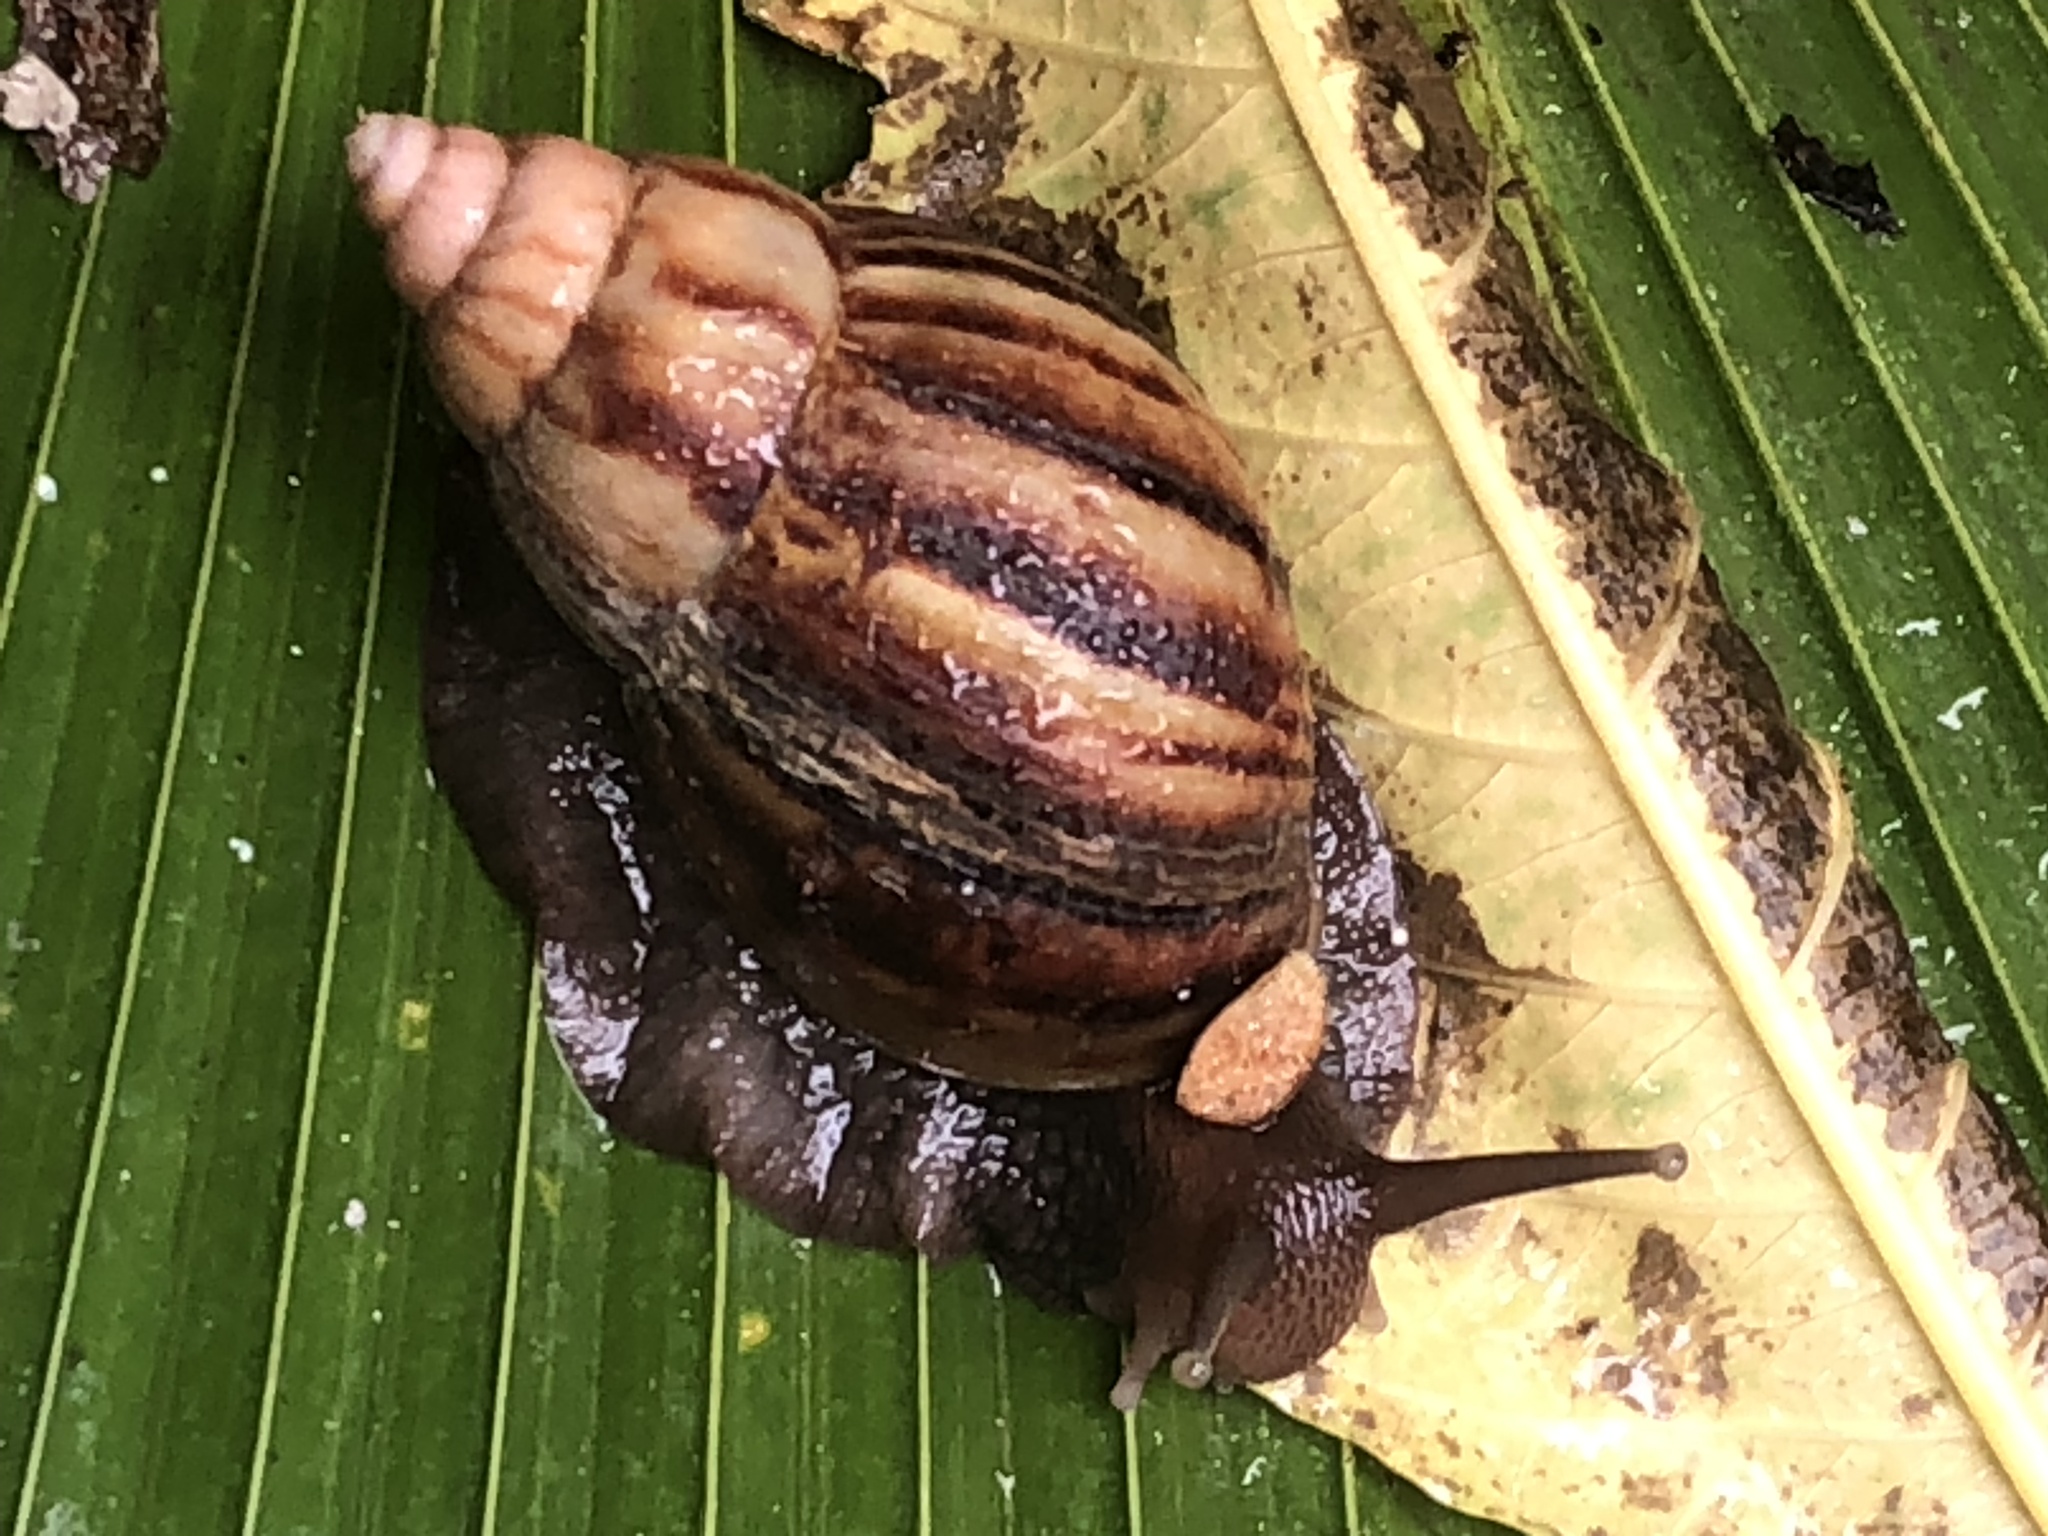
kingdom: Animalia
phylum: Mollusca
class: Gastropoda
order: Stylommatophora
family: Achatinidae
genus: Lissachatina
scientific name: Lissachatina fulica
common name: Giant african snail
